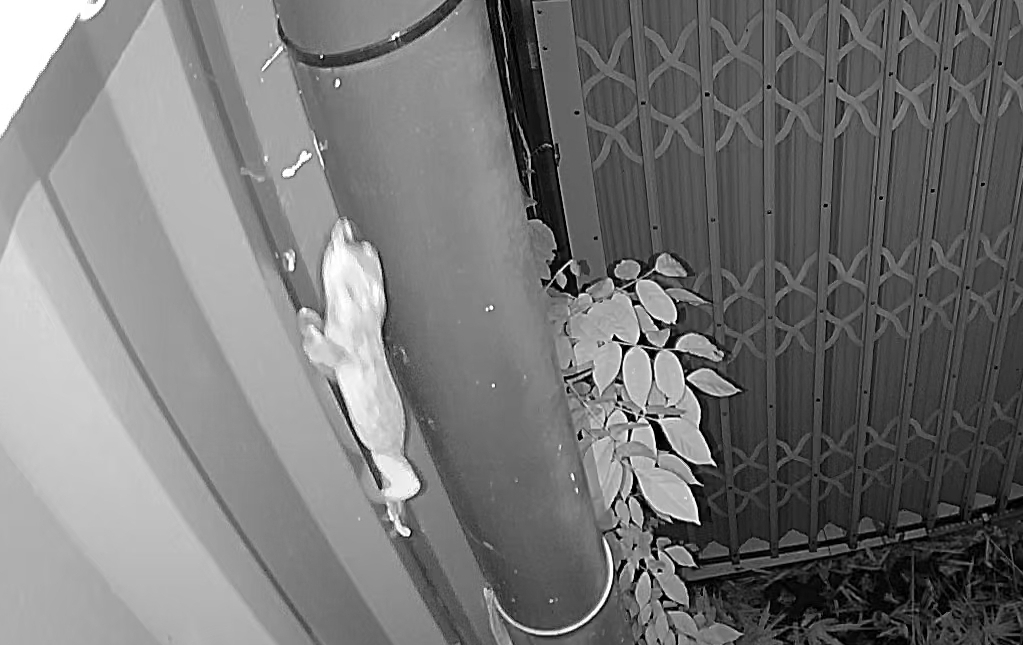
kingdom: Animalia
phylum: Chordata
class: Squamata
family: Gekkonidae
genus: Gekko
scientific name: Gekko gecko
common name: Tokay gecko
